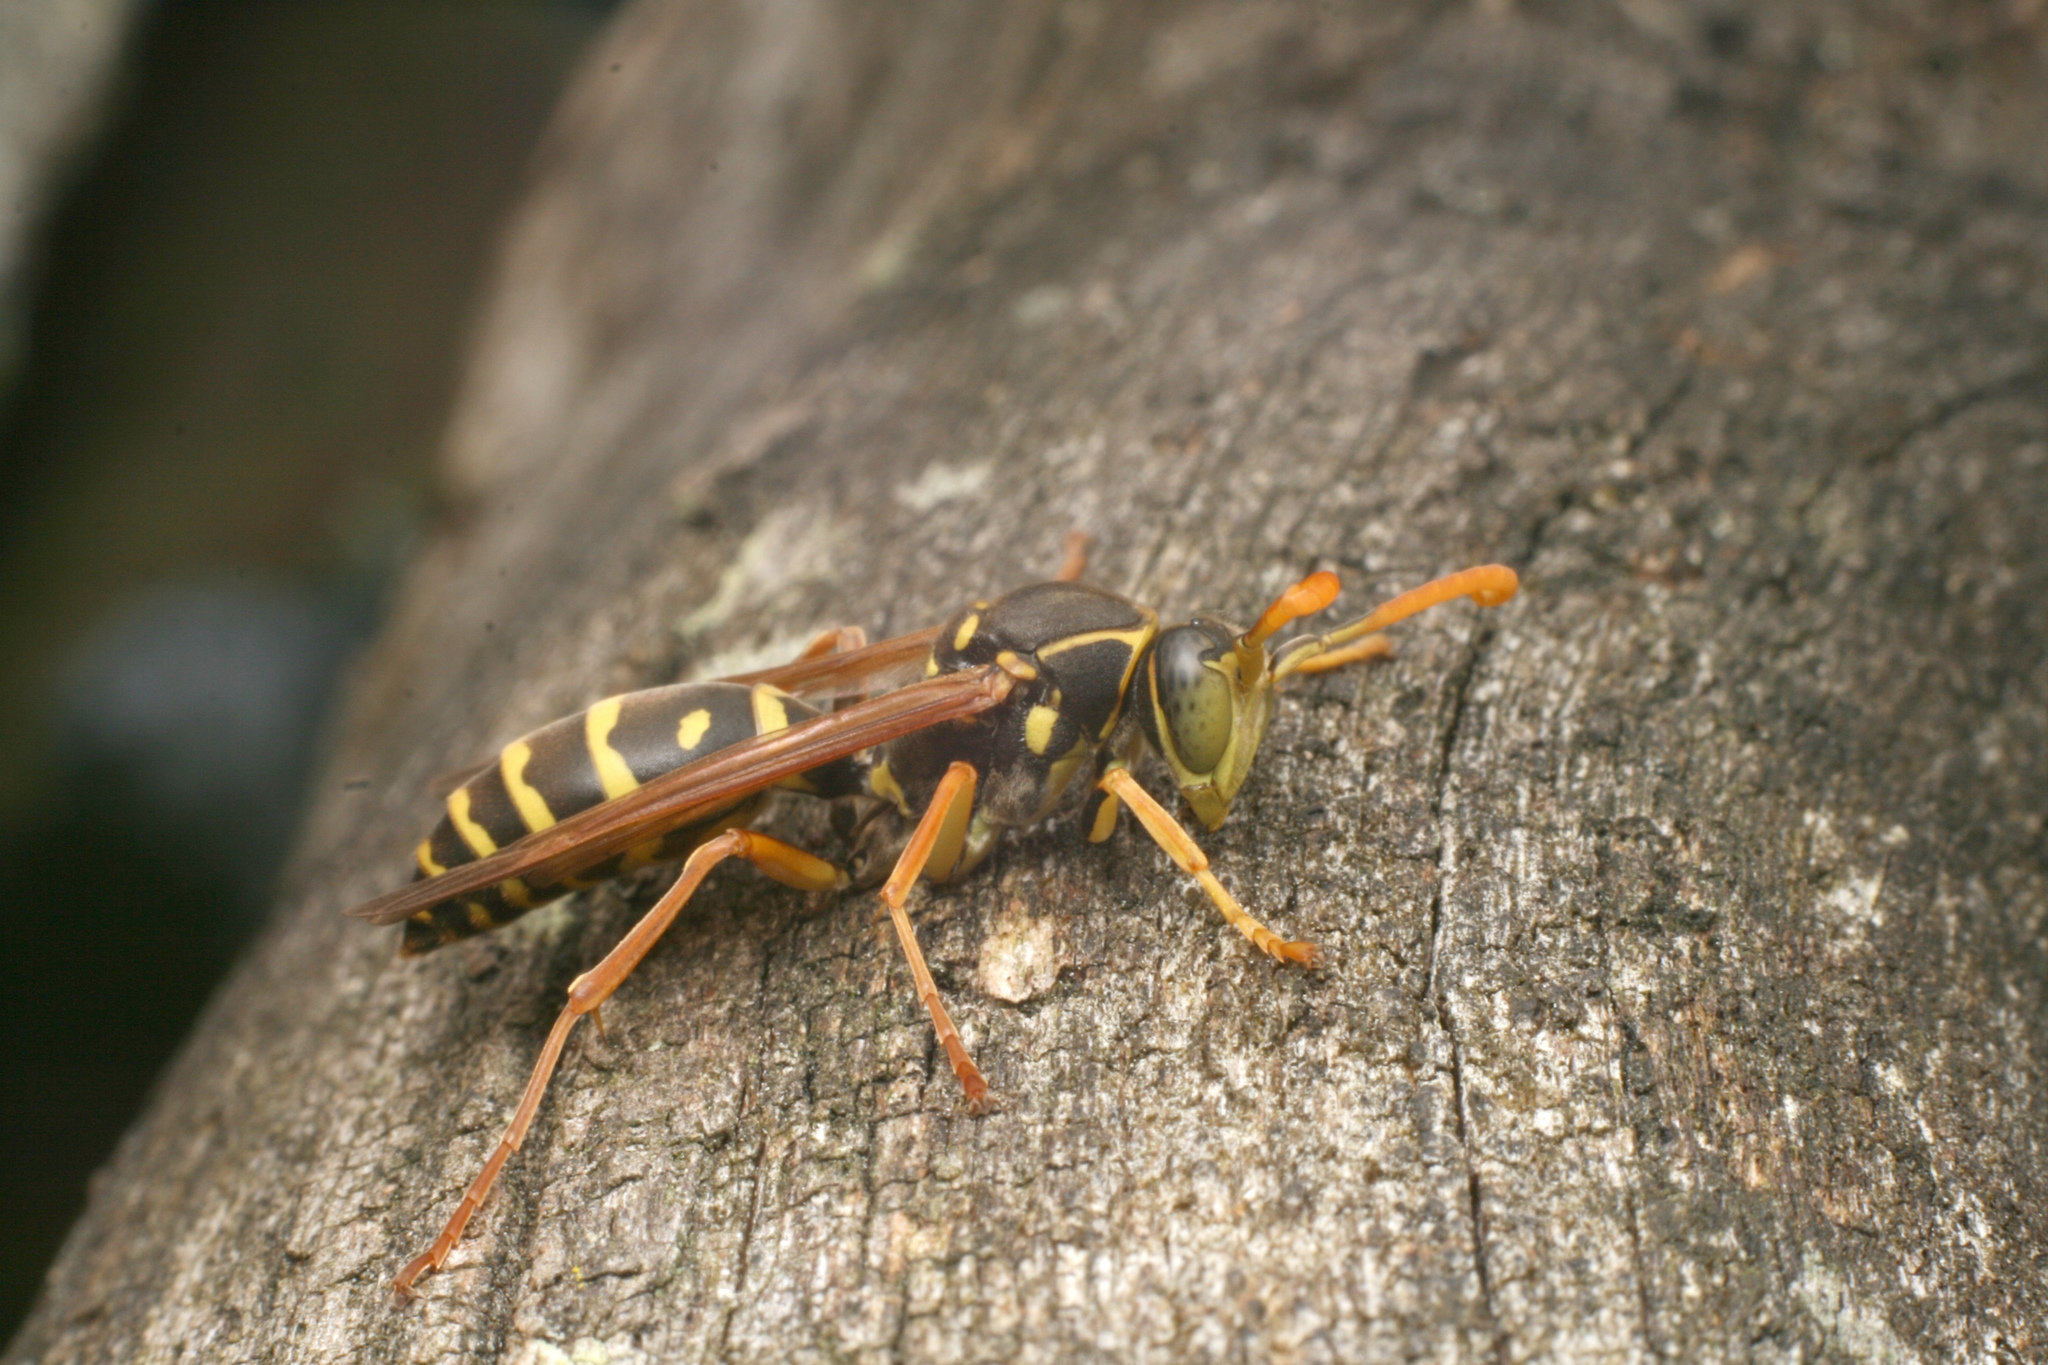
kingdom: Animalia
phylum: Arthropoda
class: Insecta
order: Hymenoptera
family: Eumenidae
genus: Polistes
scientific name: Polistes chinensis
